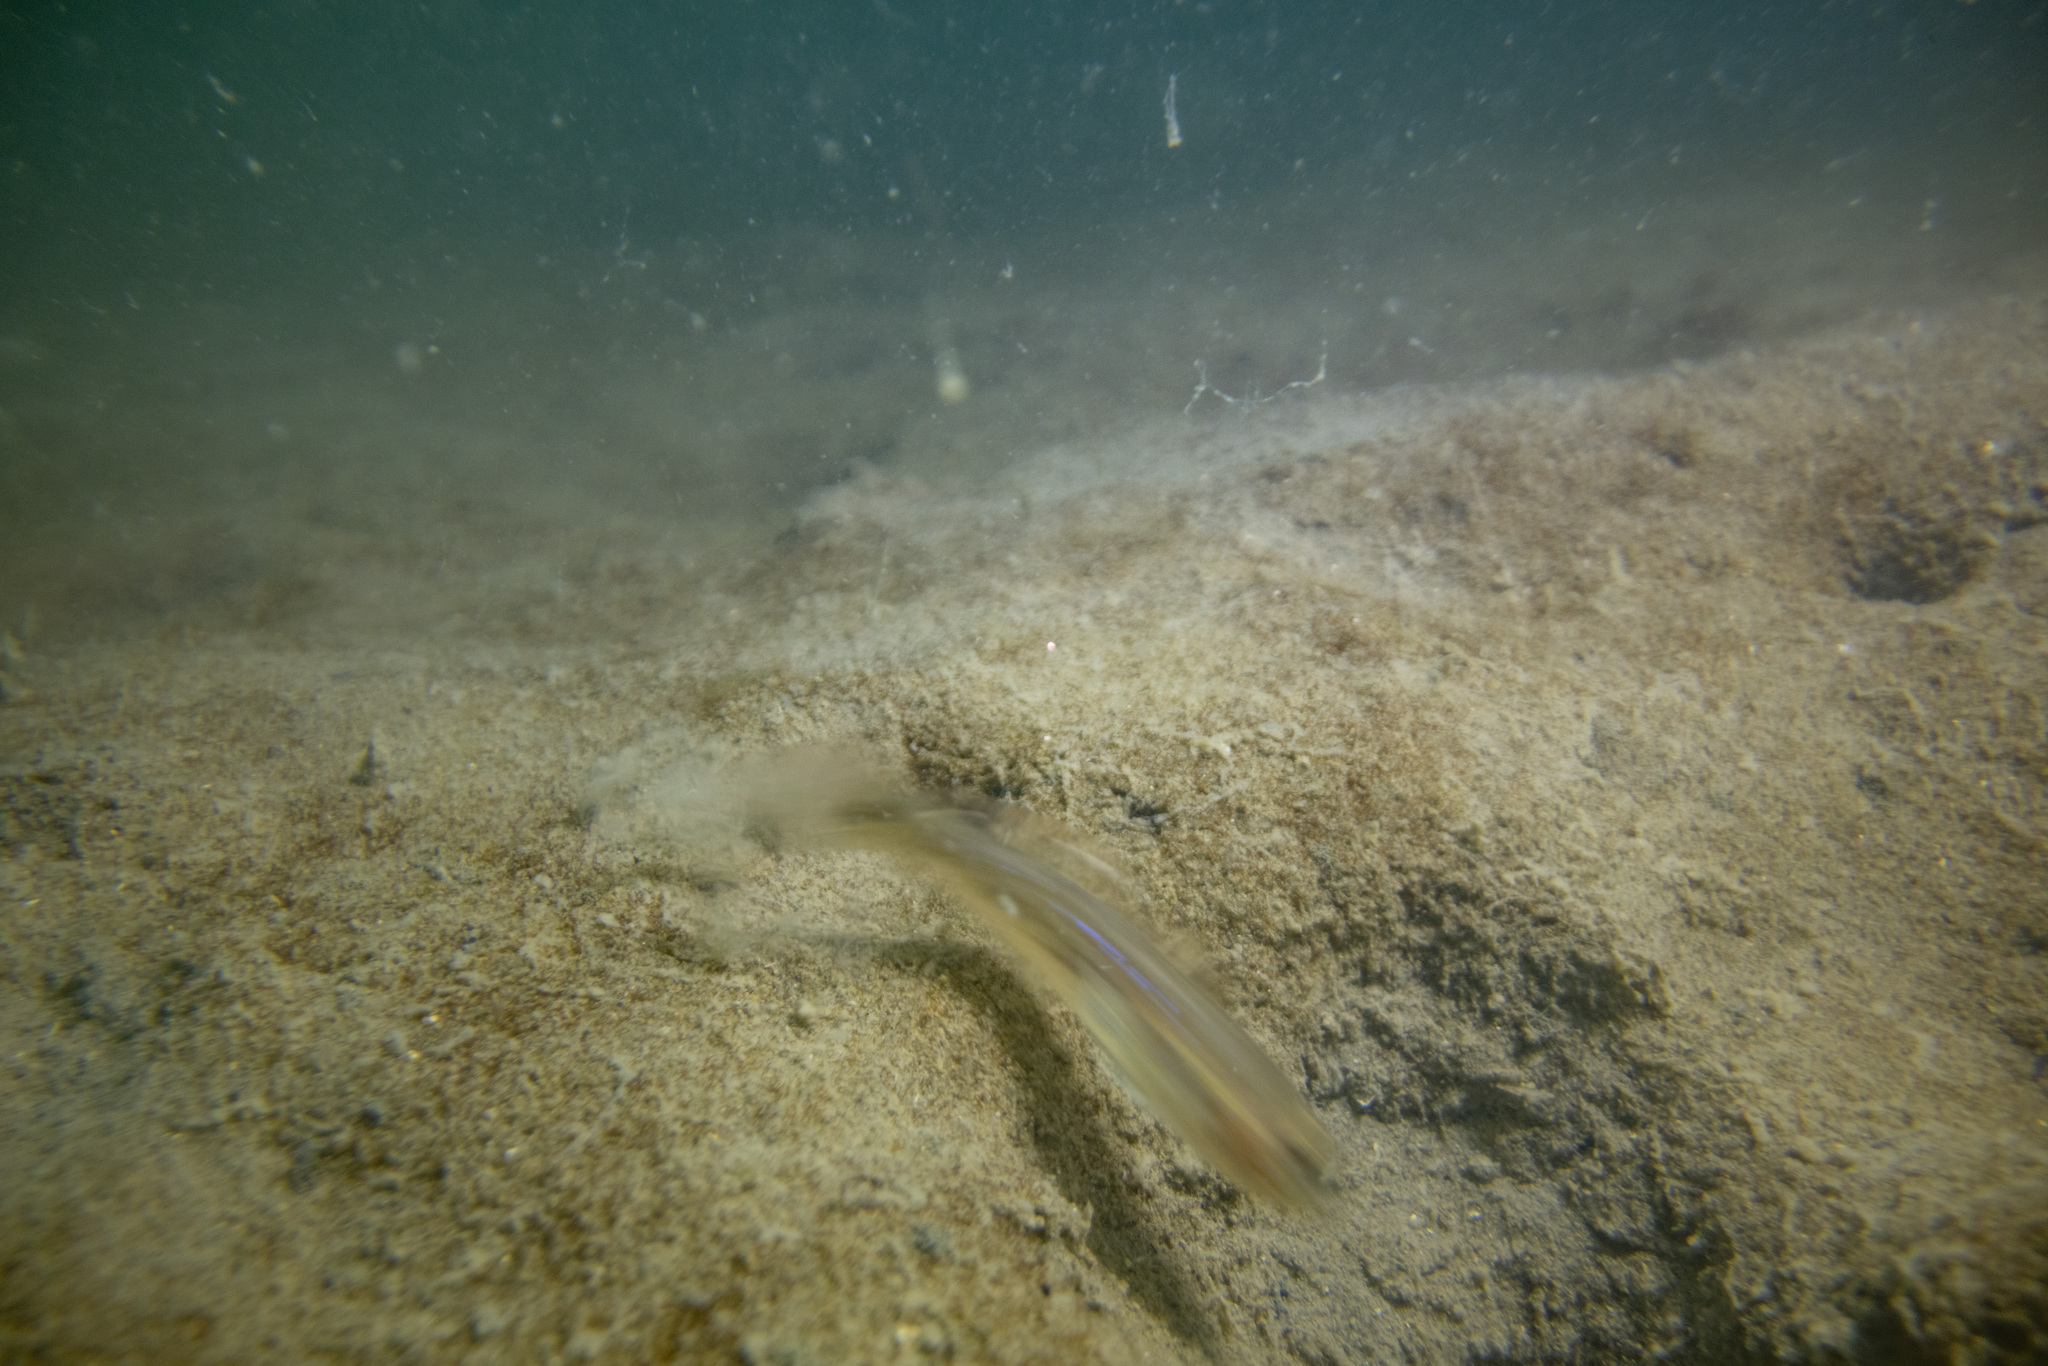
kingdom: Animalia
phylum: Chordata
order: Perciformes
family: Gobiidae
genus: Acentrogobius
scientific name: Acentrogobius pflaumii
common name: Striped sandgoby
